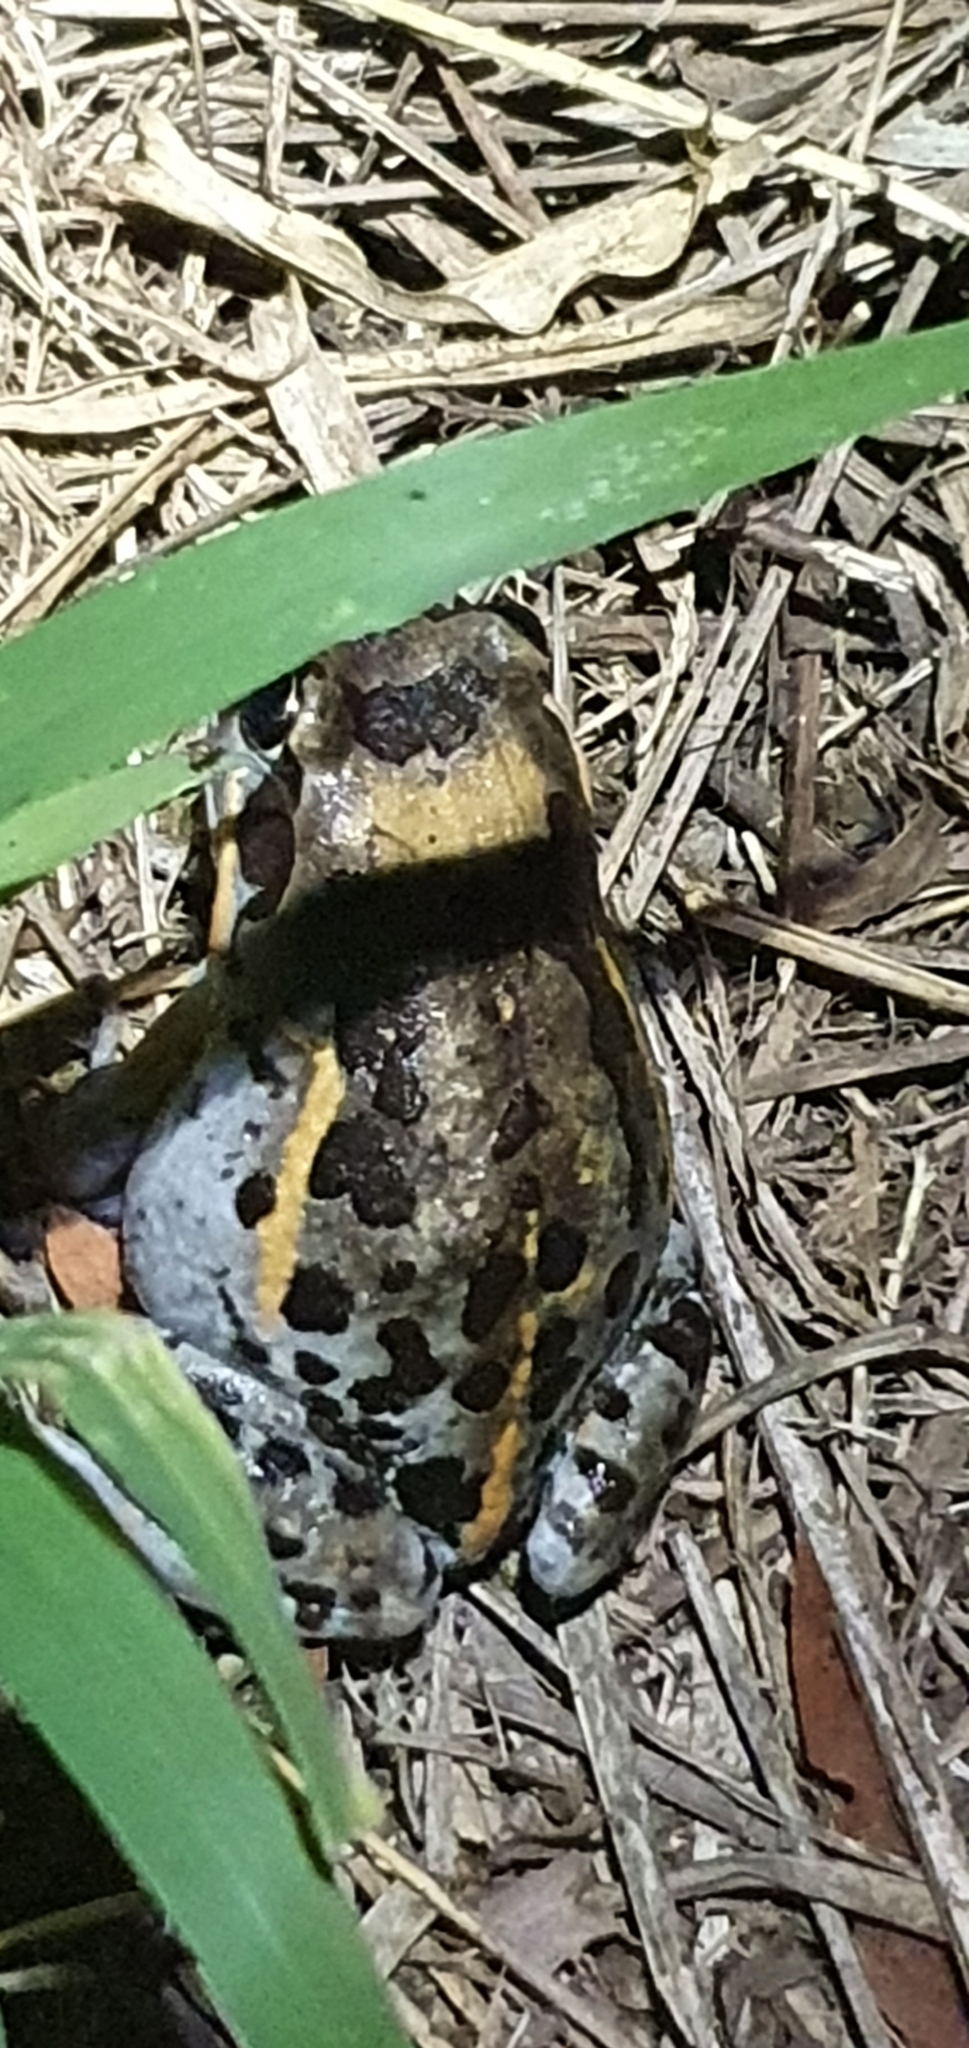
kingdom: Animalia
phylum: Chordata
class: Amphibia
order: Anura
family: Limnodynastidae
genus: Limnodynastes
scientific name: Limnodynastes salmini
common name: Salmon-striped frog
